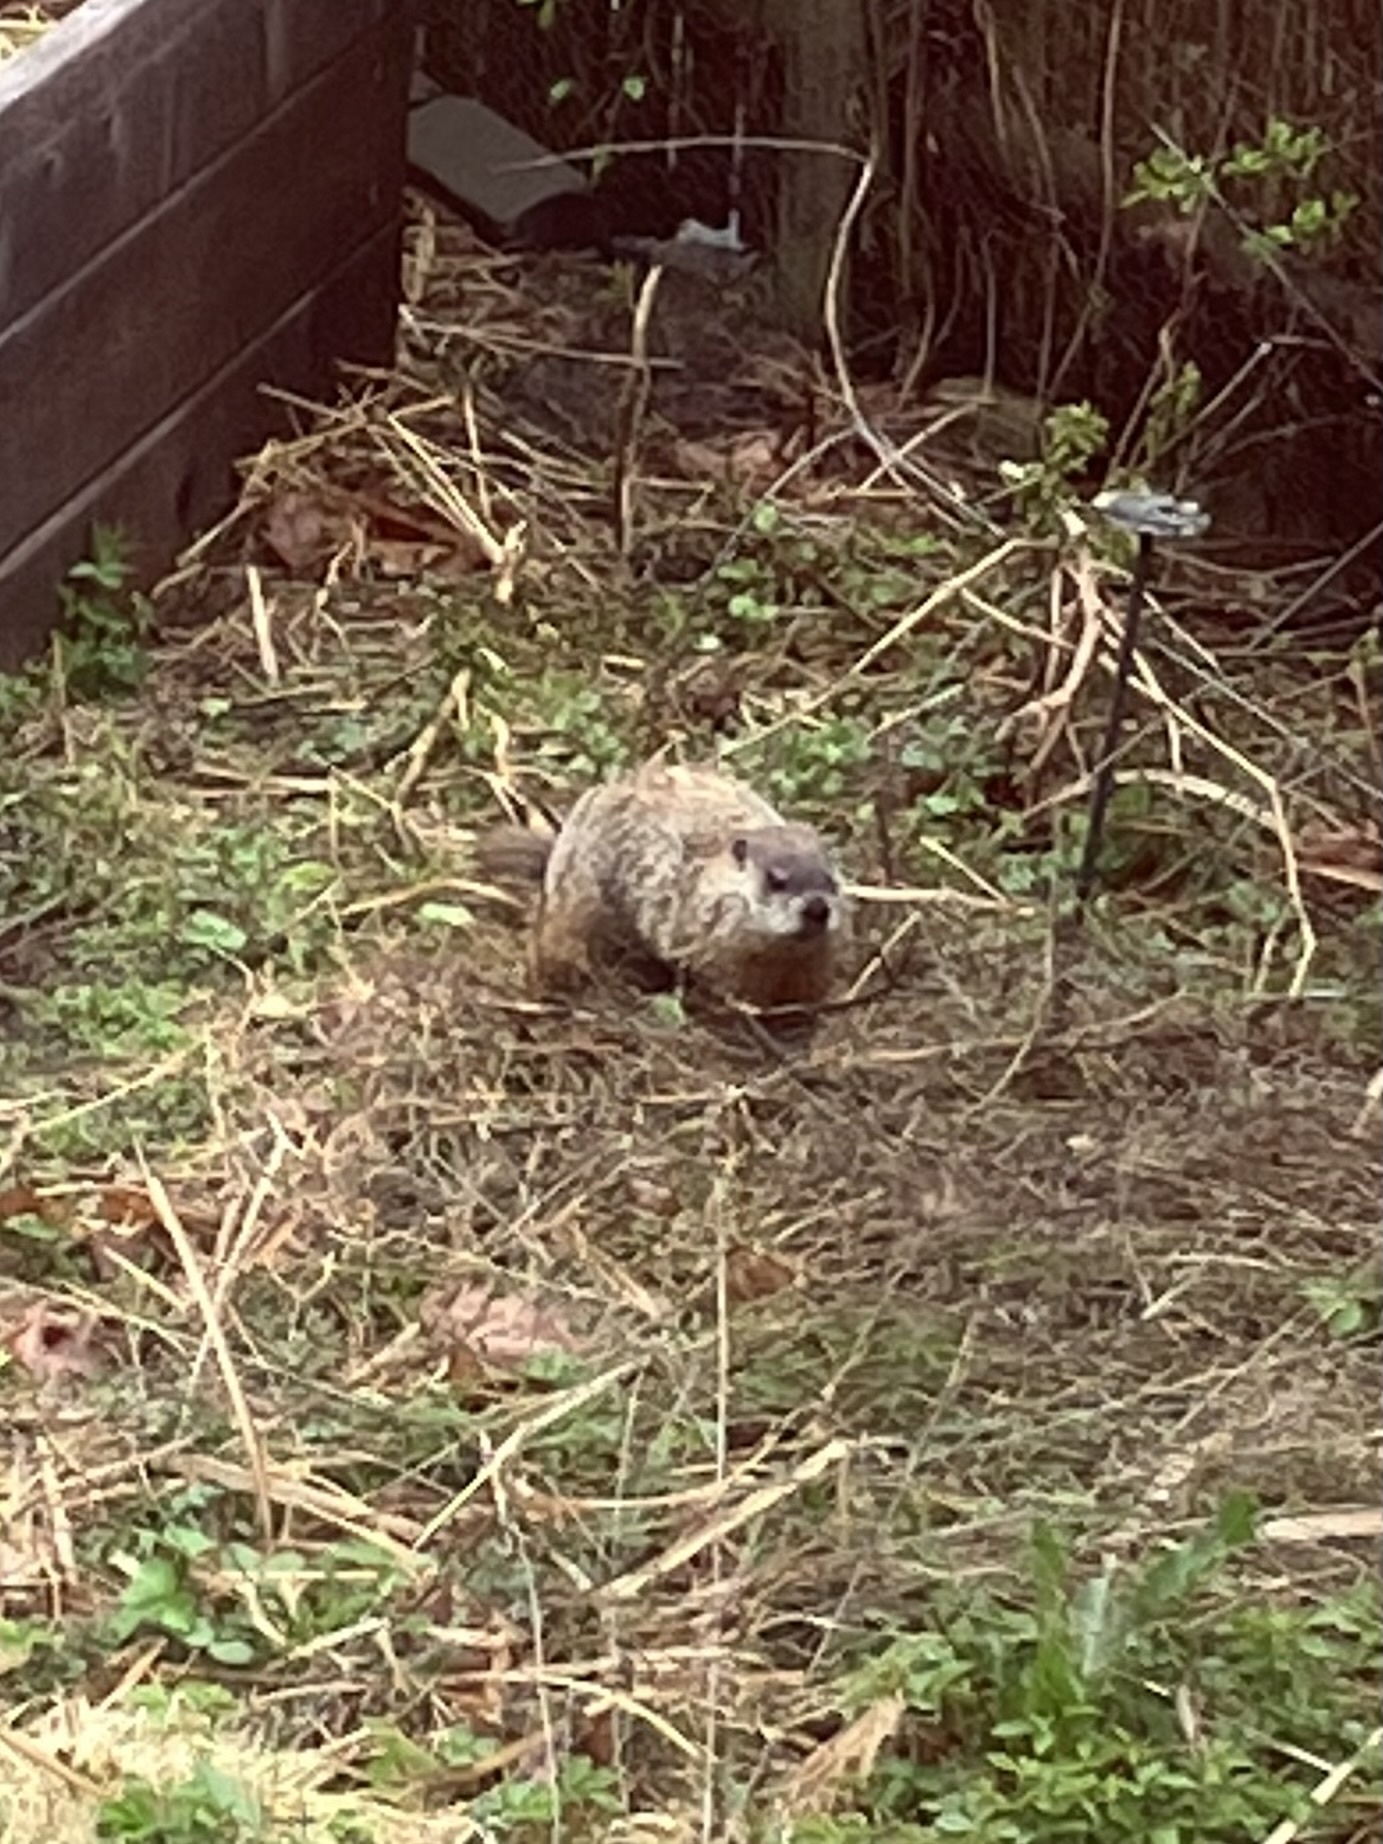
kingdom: Animalia
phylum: Chordata
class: Mammalia
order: Rodentia
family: Sciuridae
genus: Marmota
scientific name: Marmota monax
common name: Groundhog
